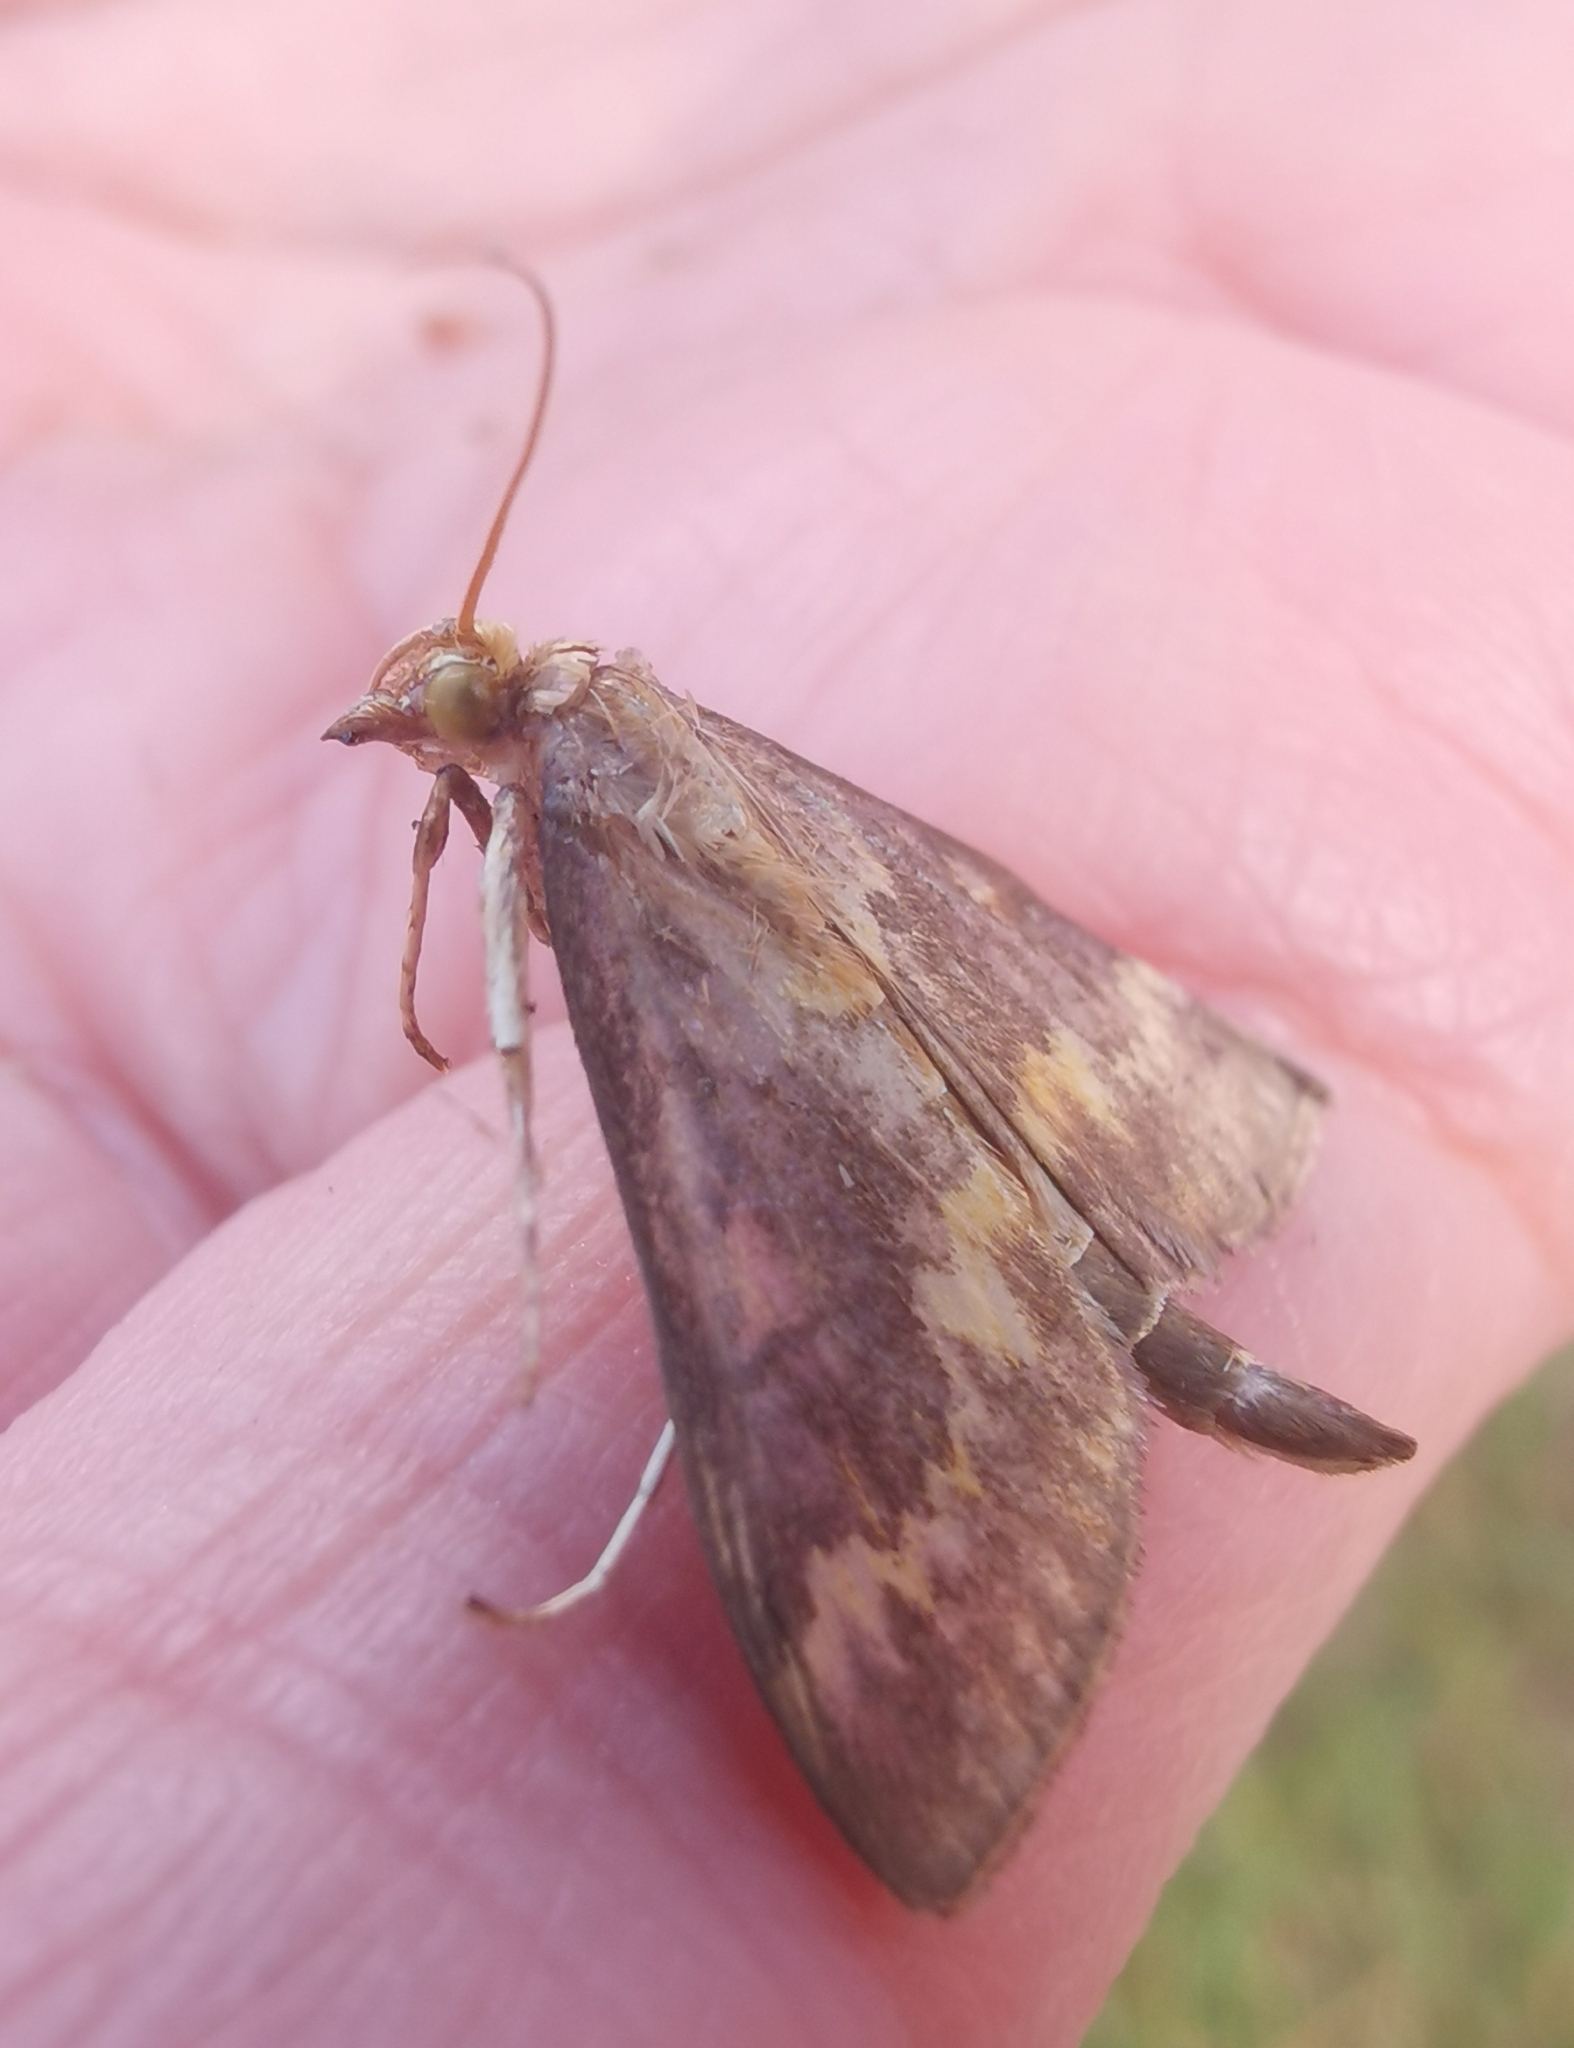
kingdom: Animalia
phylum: Arthropoda
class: Insecta
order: Lepidoptera
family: Crambidae
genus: Ostrinia
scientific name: Ostrinia nubilalis
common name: European corn borer
